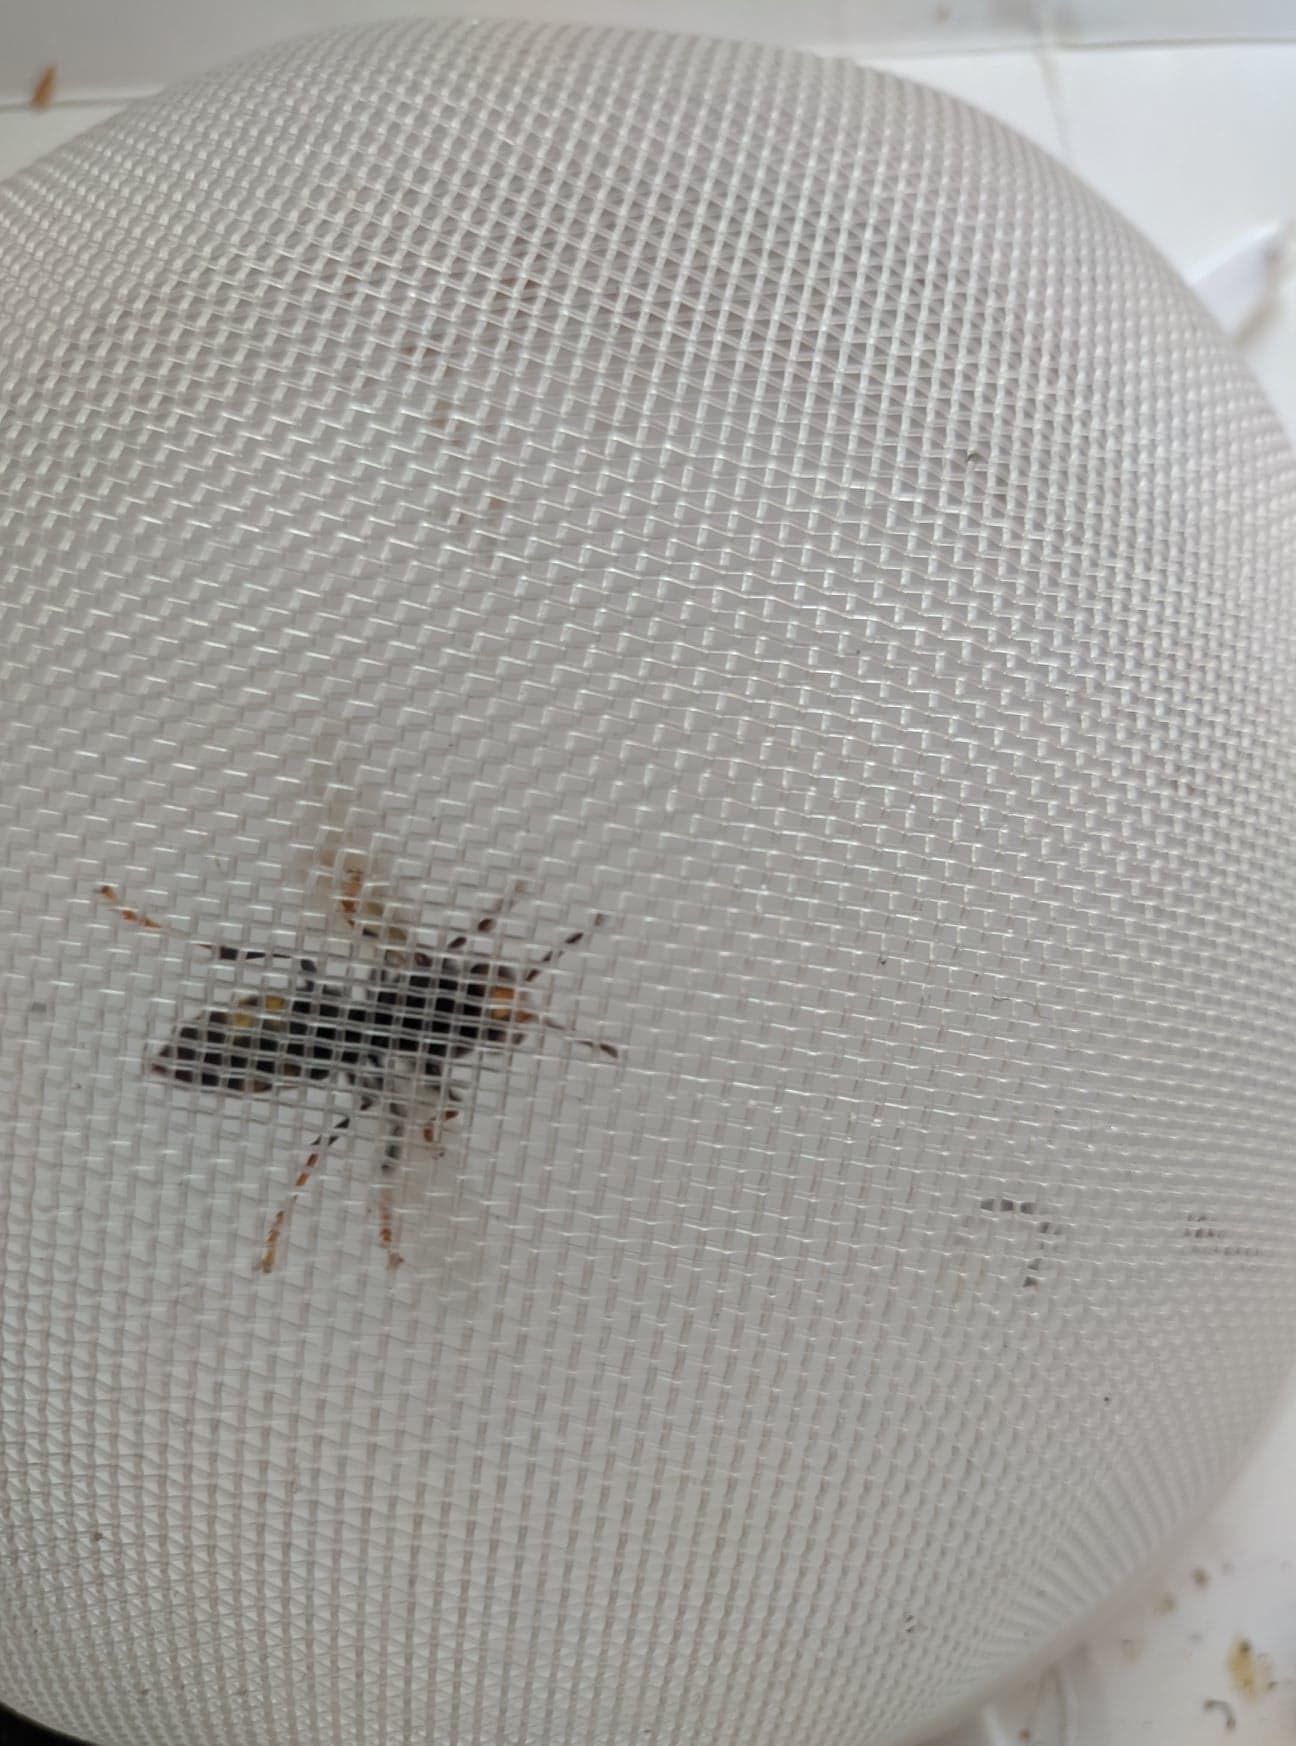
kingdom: Animalia
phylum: Arthropoda
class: Insecta
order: Hymenoptera
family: Vespidae
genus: Vespa
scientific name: Vespa velutina
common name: Asian hornet
